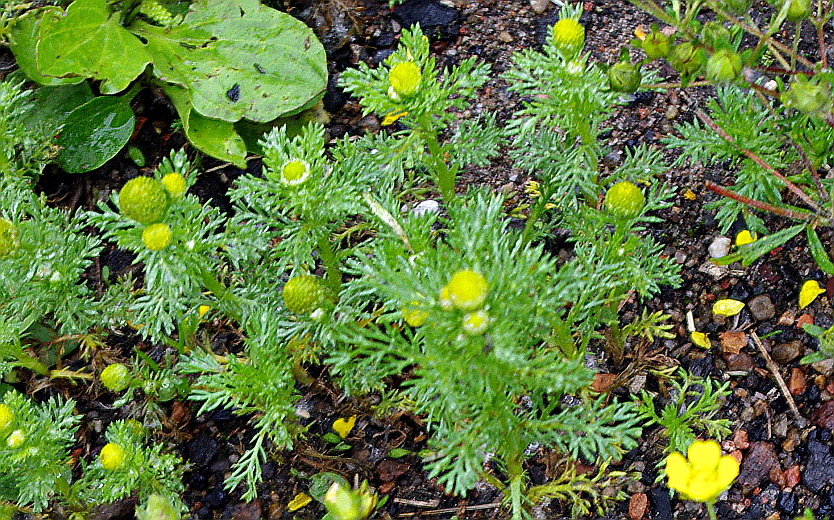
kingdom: Plantae
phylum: Tracheophyta
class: Magnoliopsida
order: Asterales
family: Asteraceae
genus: Matricaria
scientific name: Matricaria discoidea
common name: Disc mayweed
